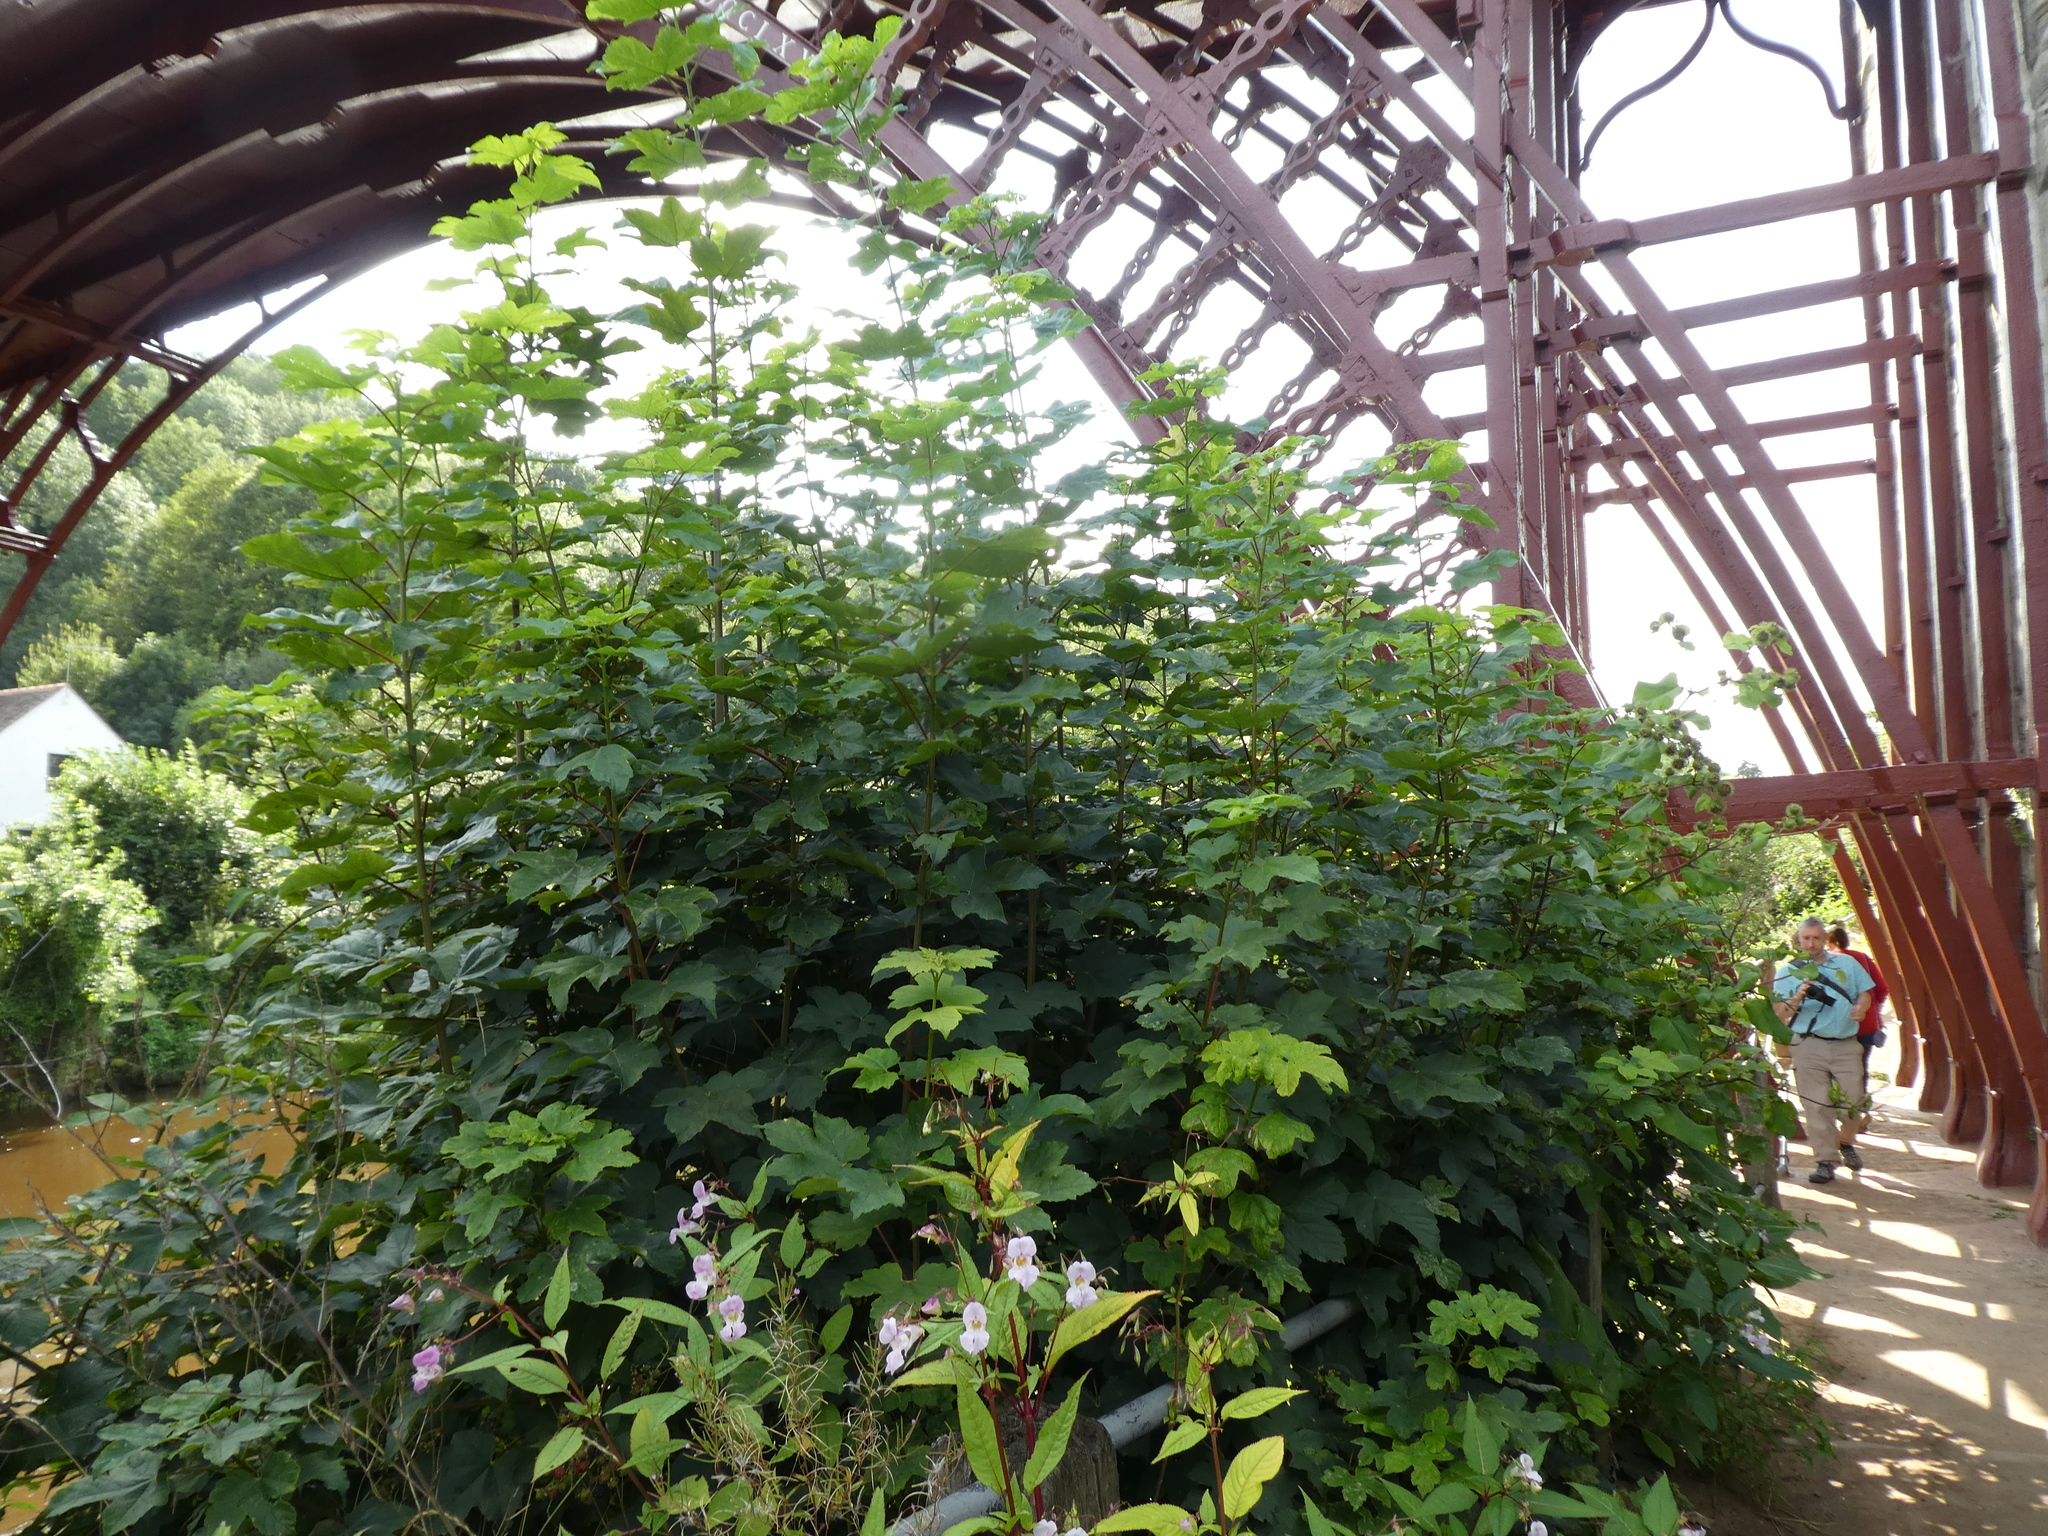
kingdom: Plantae
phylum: Tracheophyta
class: Magnoliopsida
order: Sapindales
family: Sapindaceae
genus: Acer
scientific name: Acer pseudoplatanus
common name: Sycamore
